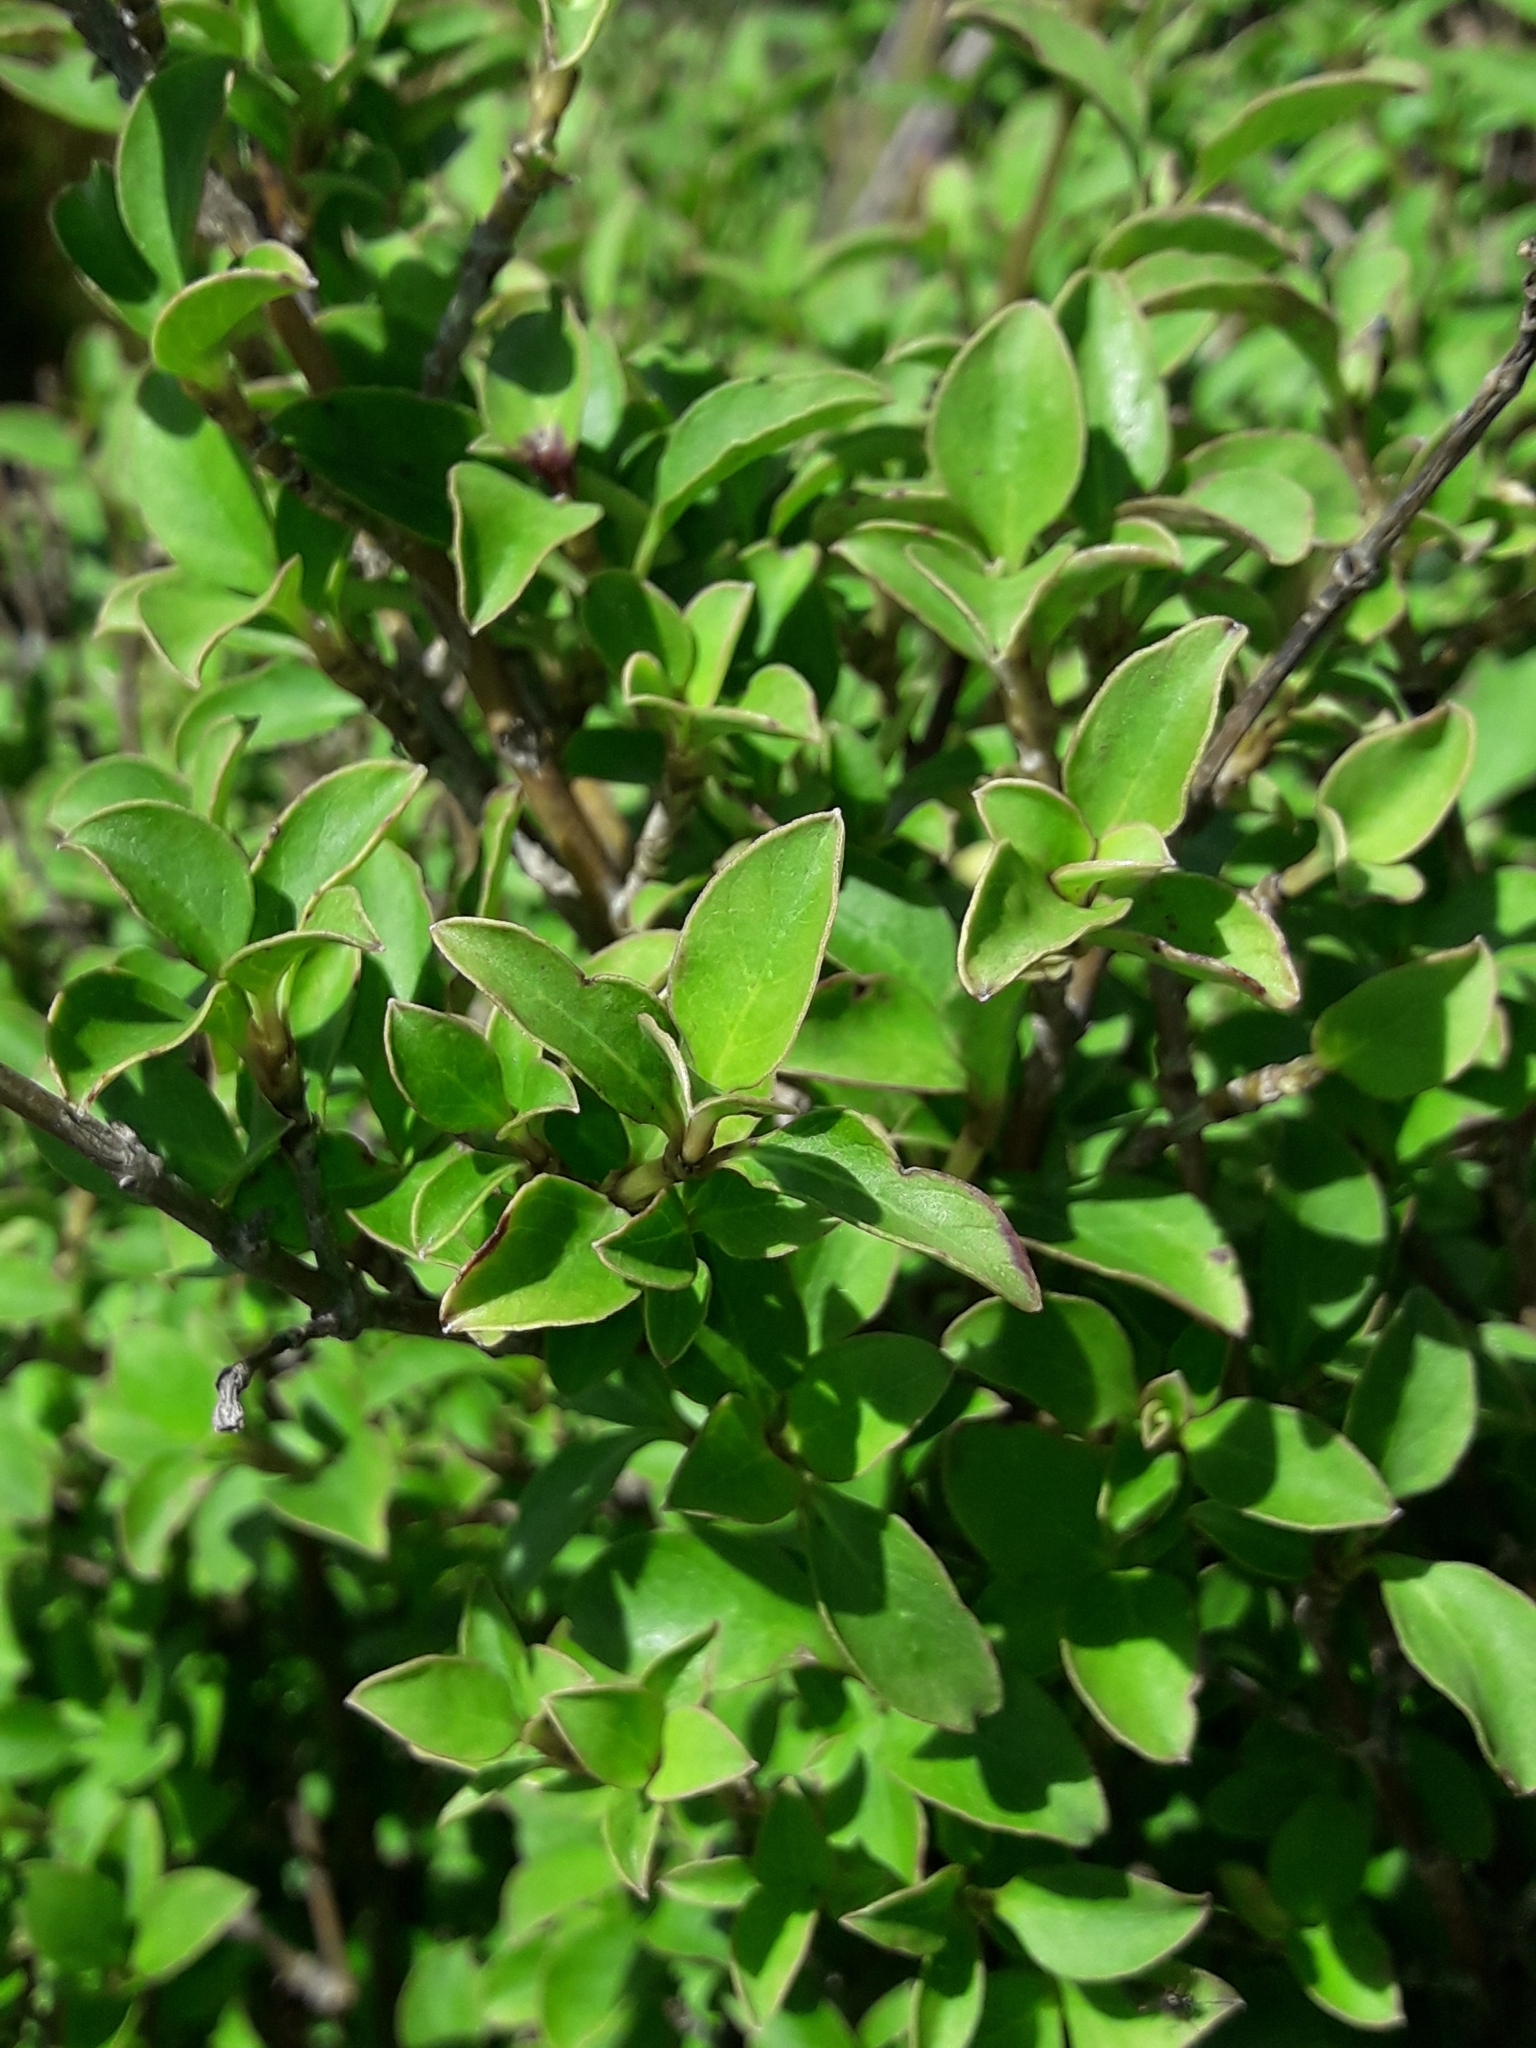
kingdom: Plantae
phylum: Tracheophyta
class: Magnoliopsida
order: Gentianales
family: Rubiaceae
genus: Coprosma
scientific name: Coprosma foetidissima
